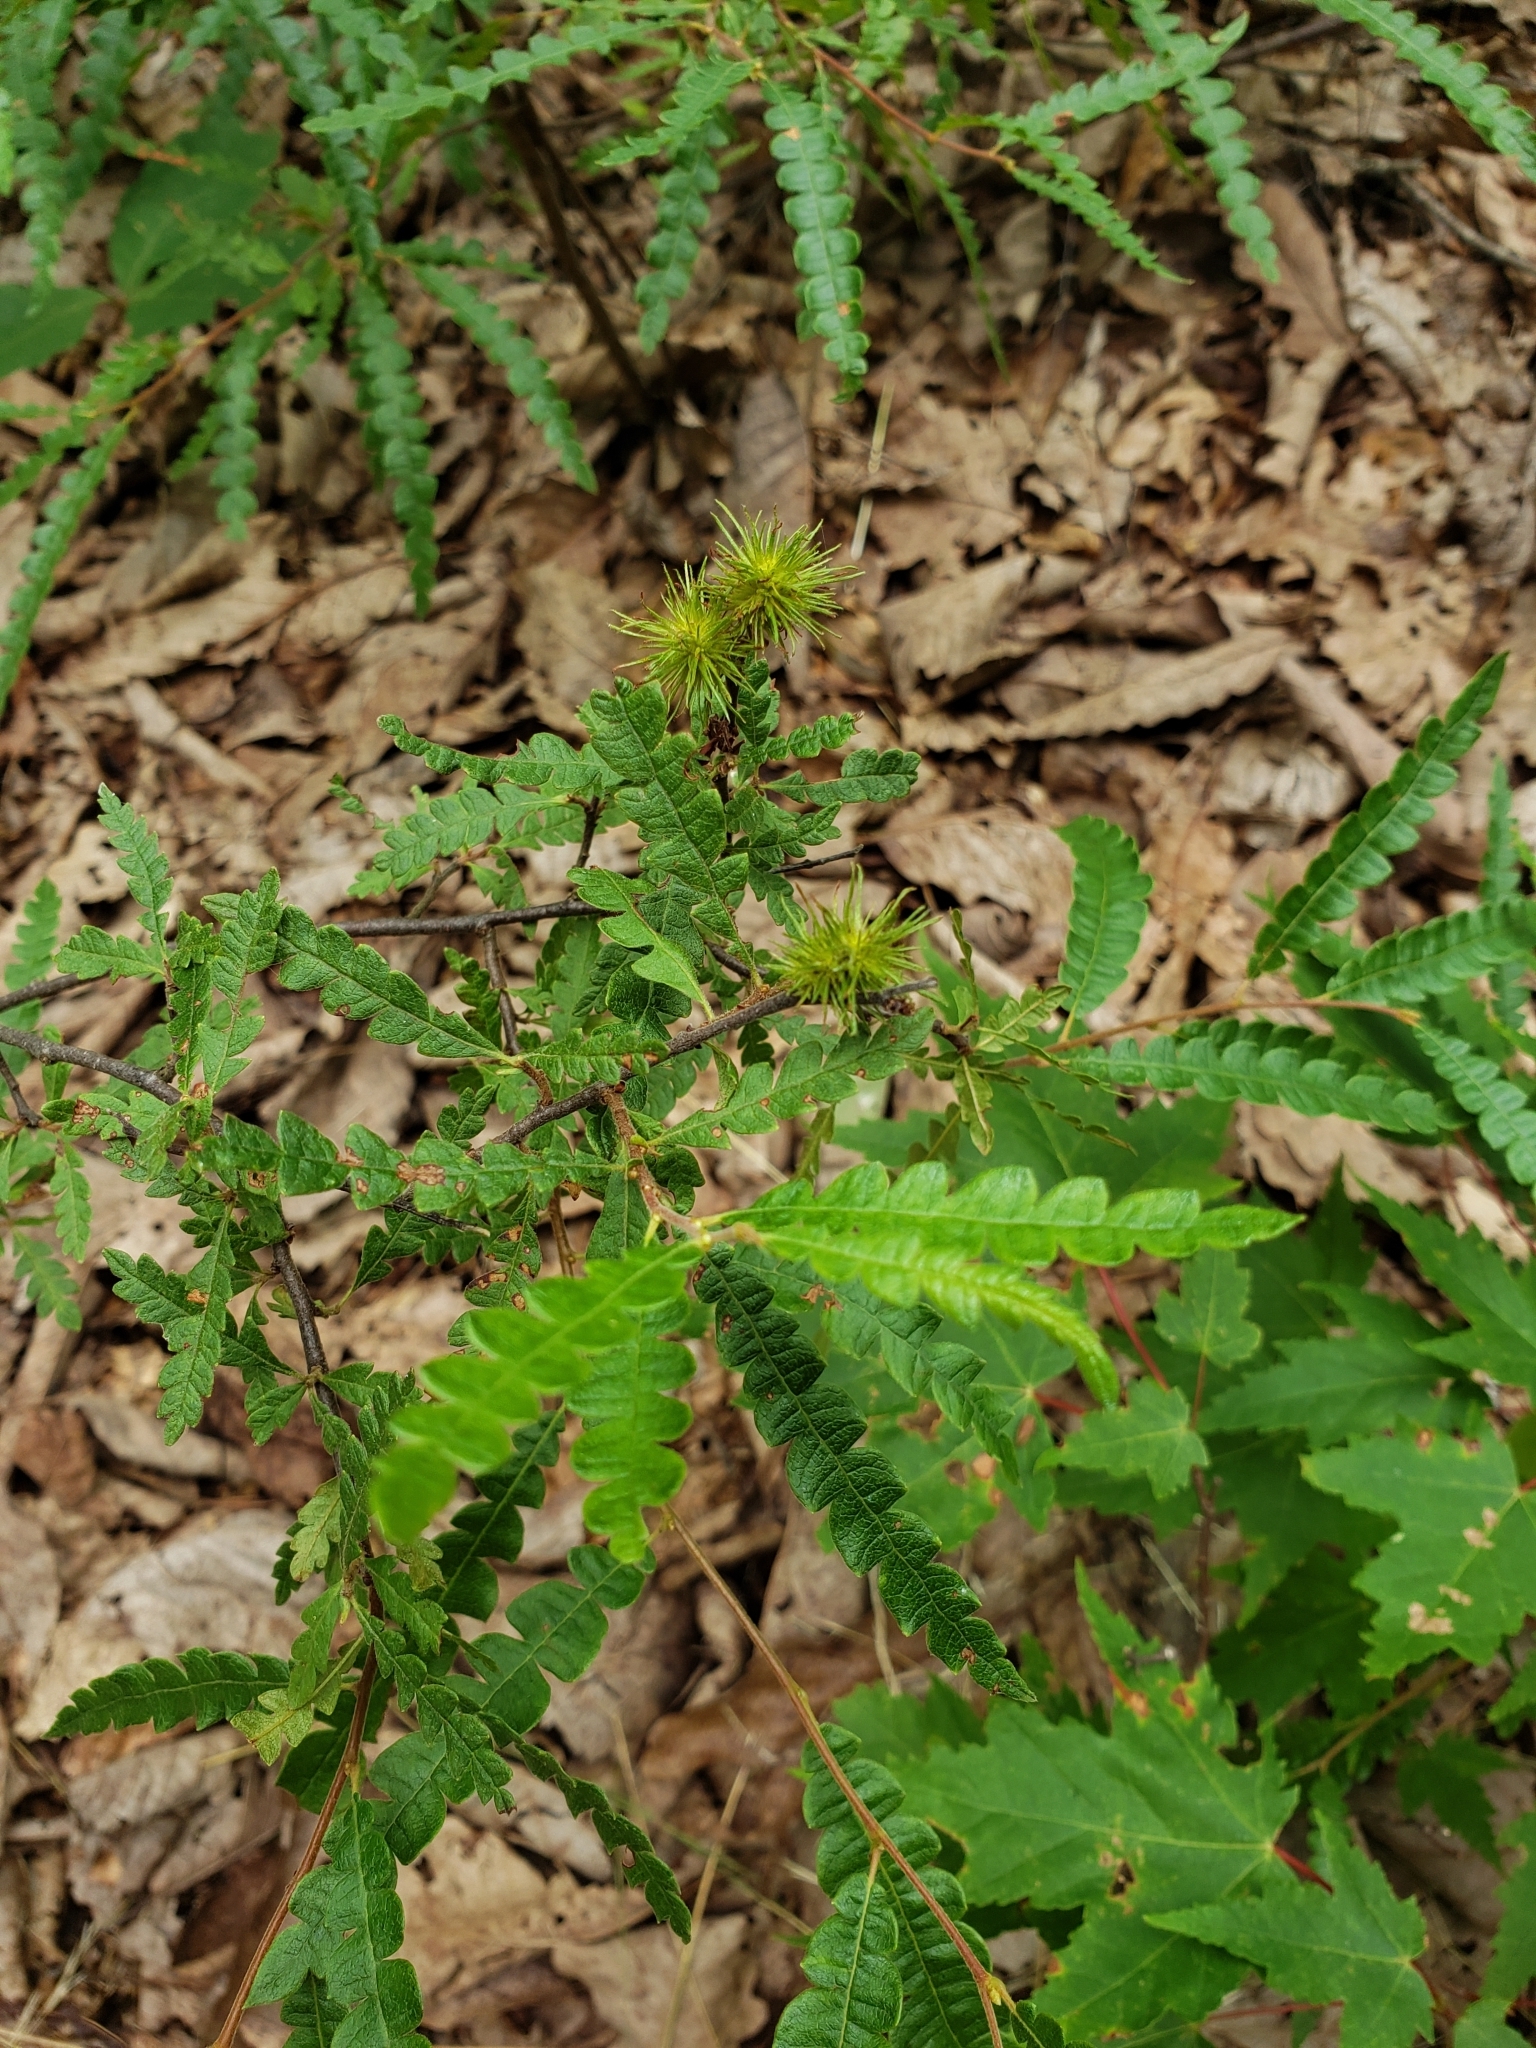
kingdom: Plantae
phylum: Tracheophyta
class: Magnoliopsida
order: Fagales
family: Myricaceae
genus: Comptonia
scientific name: Comptonia peregrina
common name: Sweet-fern
